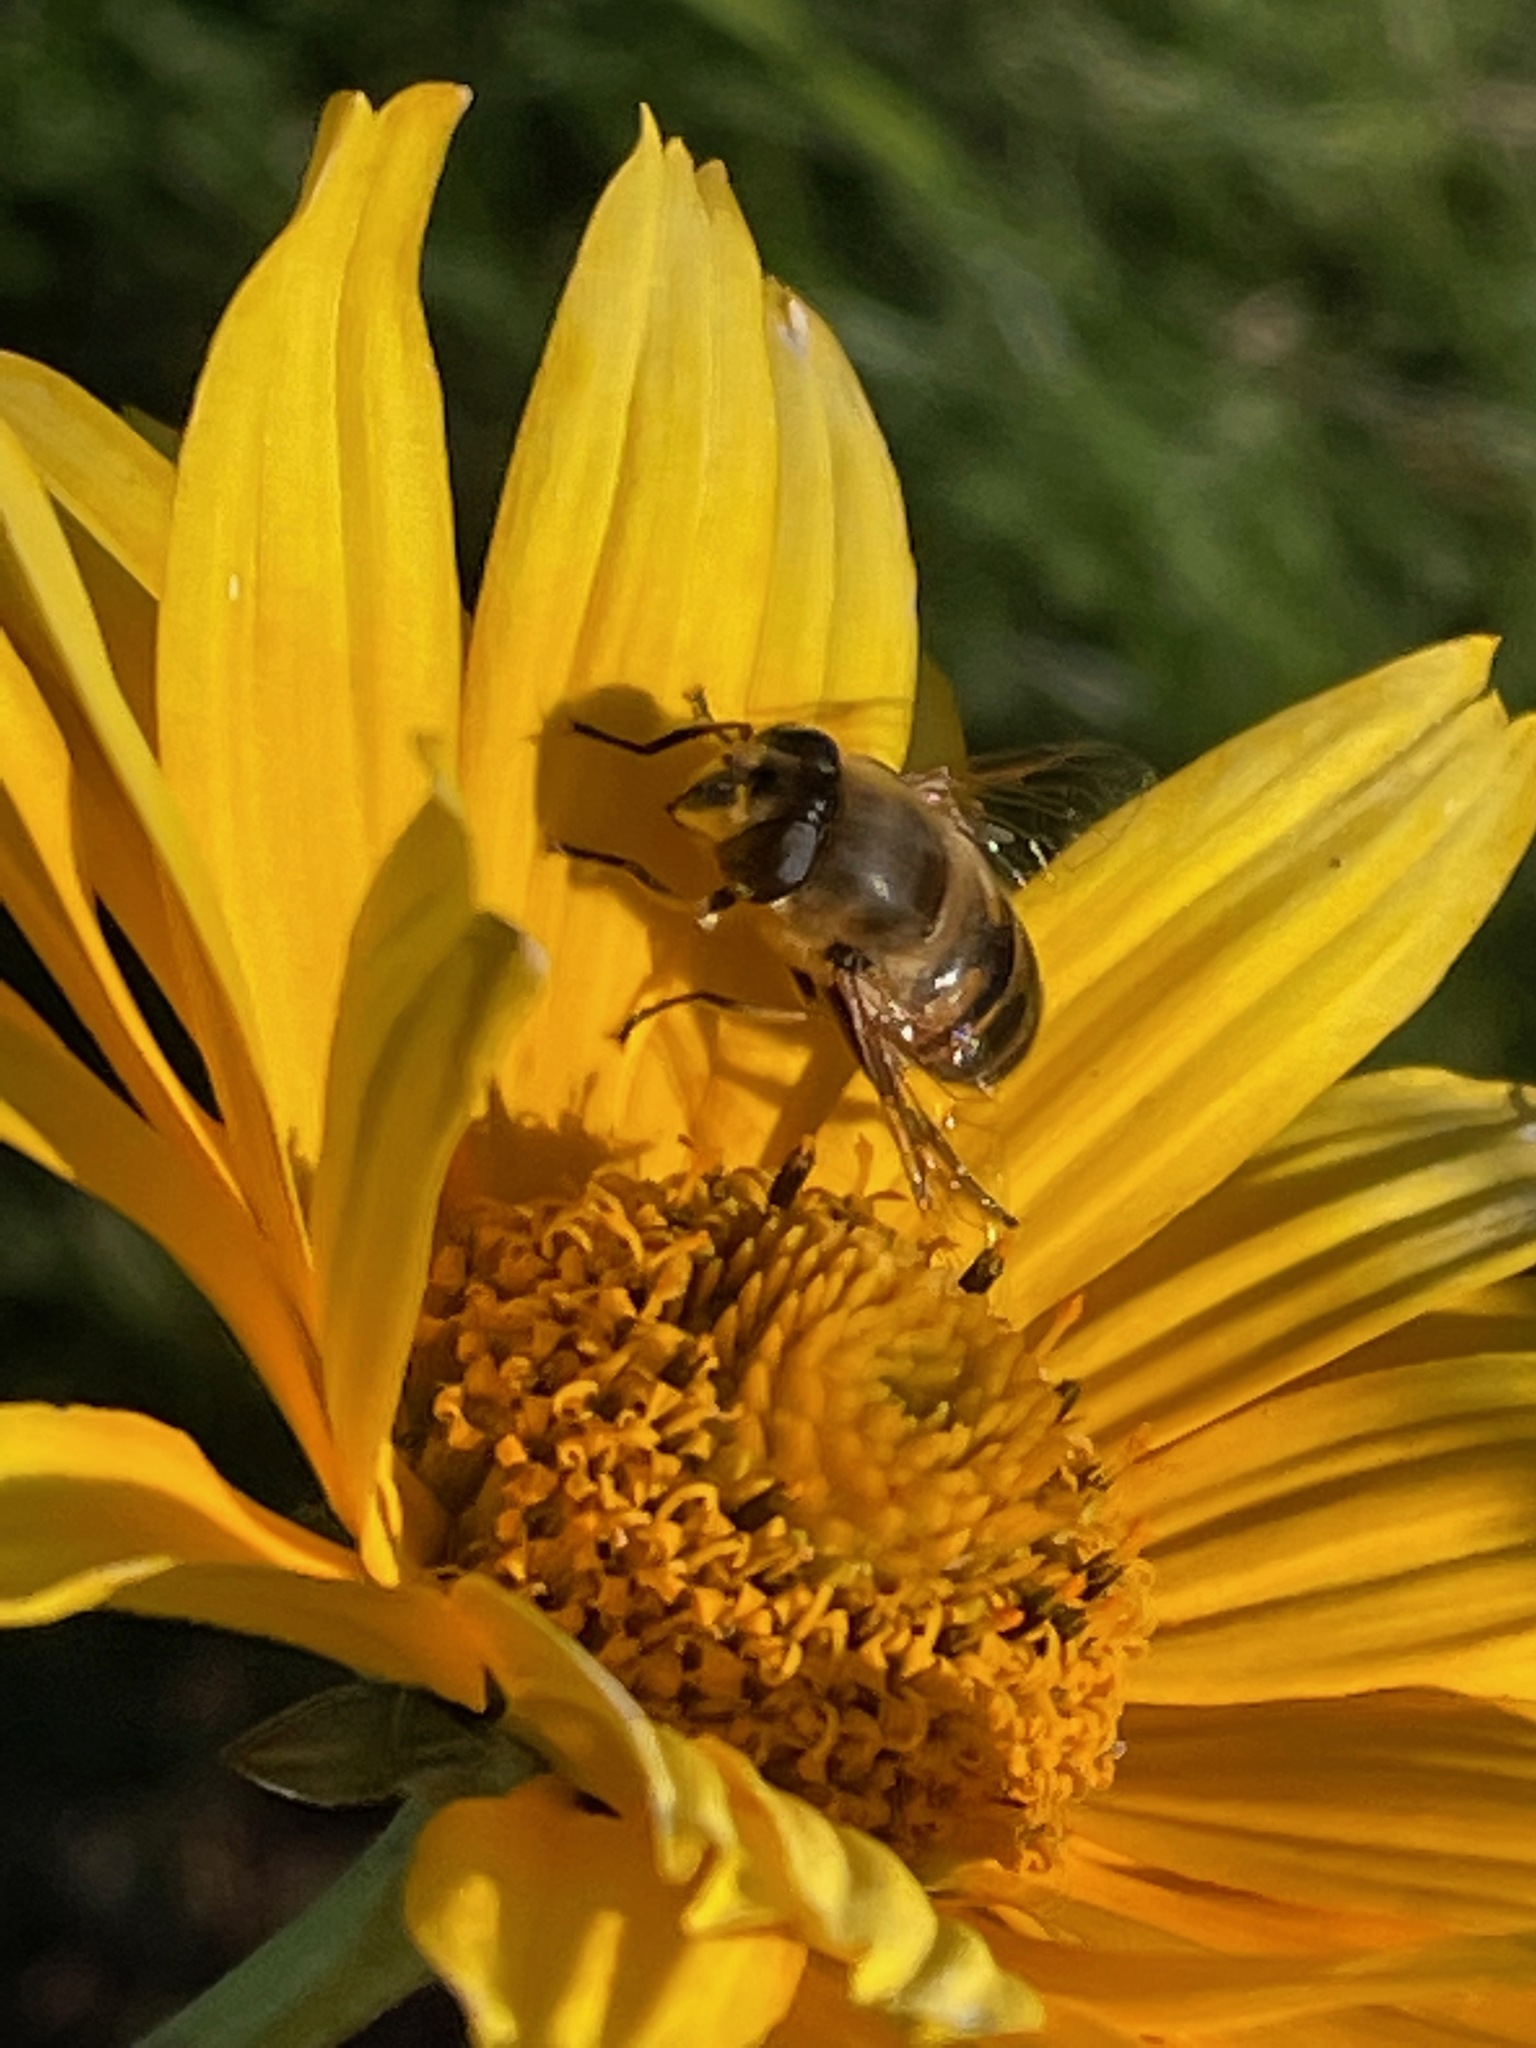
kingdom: Animalia
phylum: Arthropoda
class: Insecta
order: Diptera
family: Syrphidae
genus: Eristalis
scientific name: Eristalis tenax
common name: Drone fly
